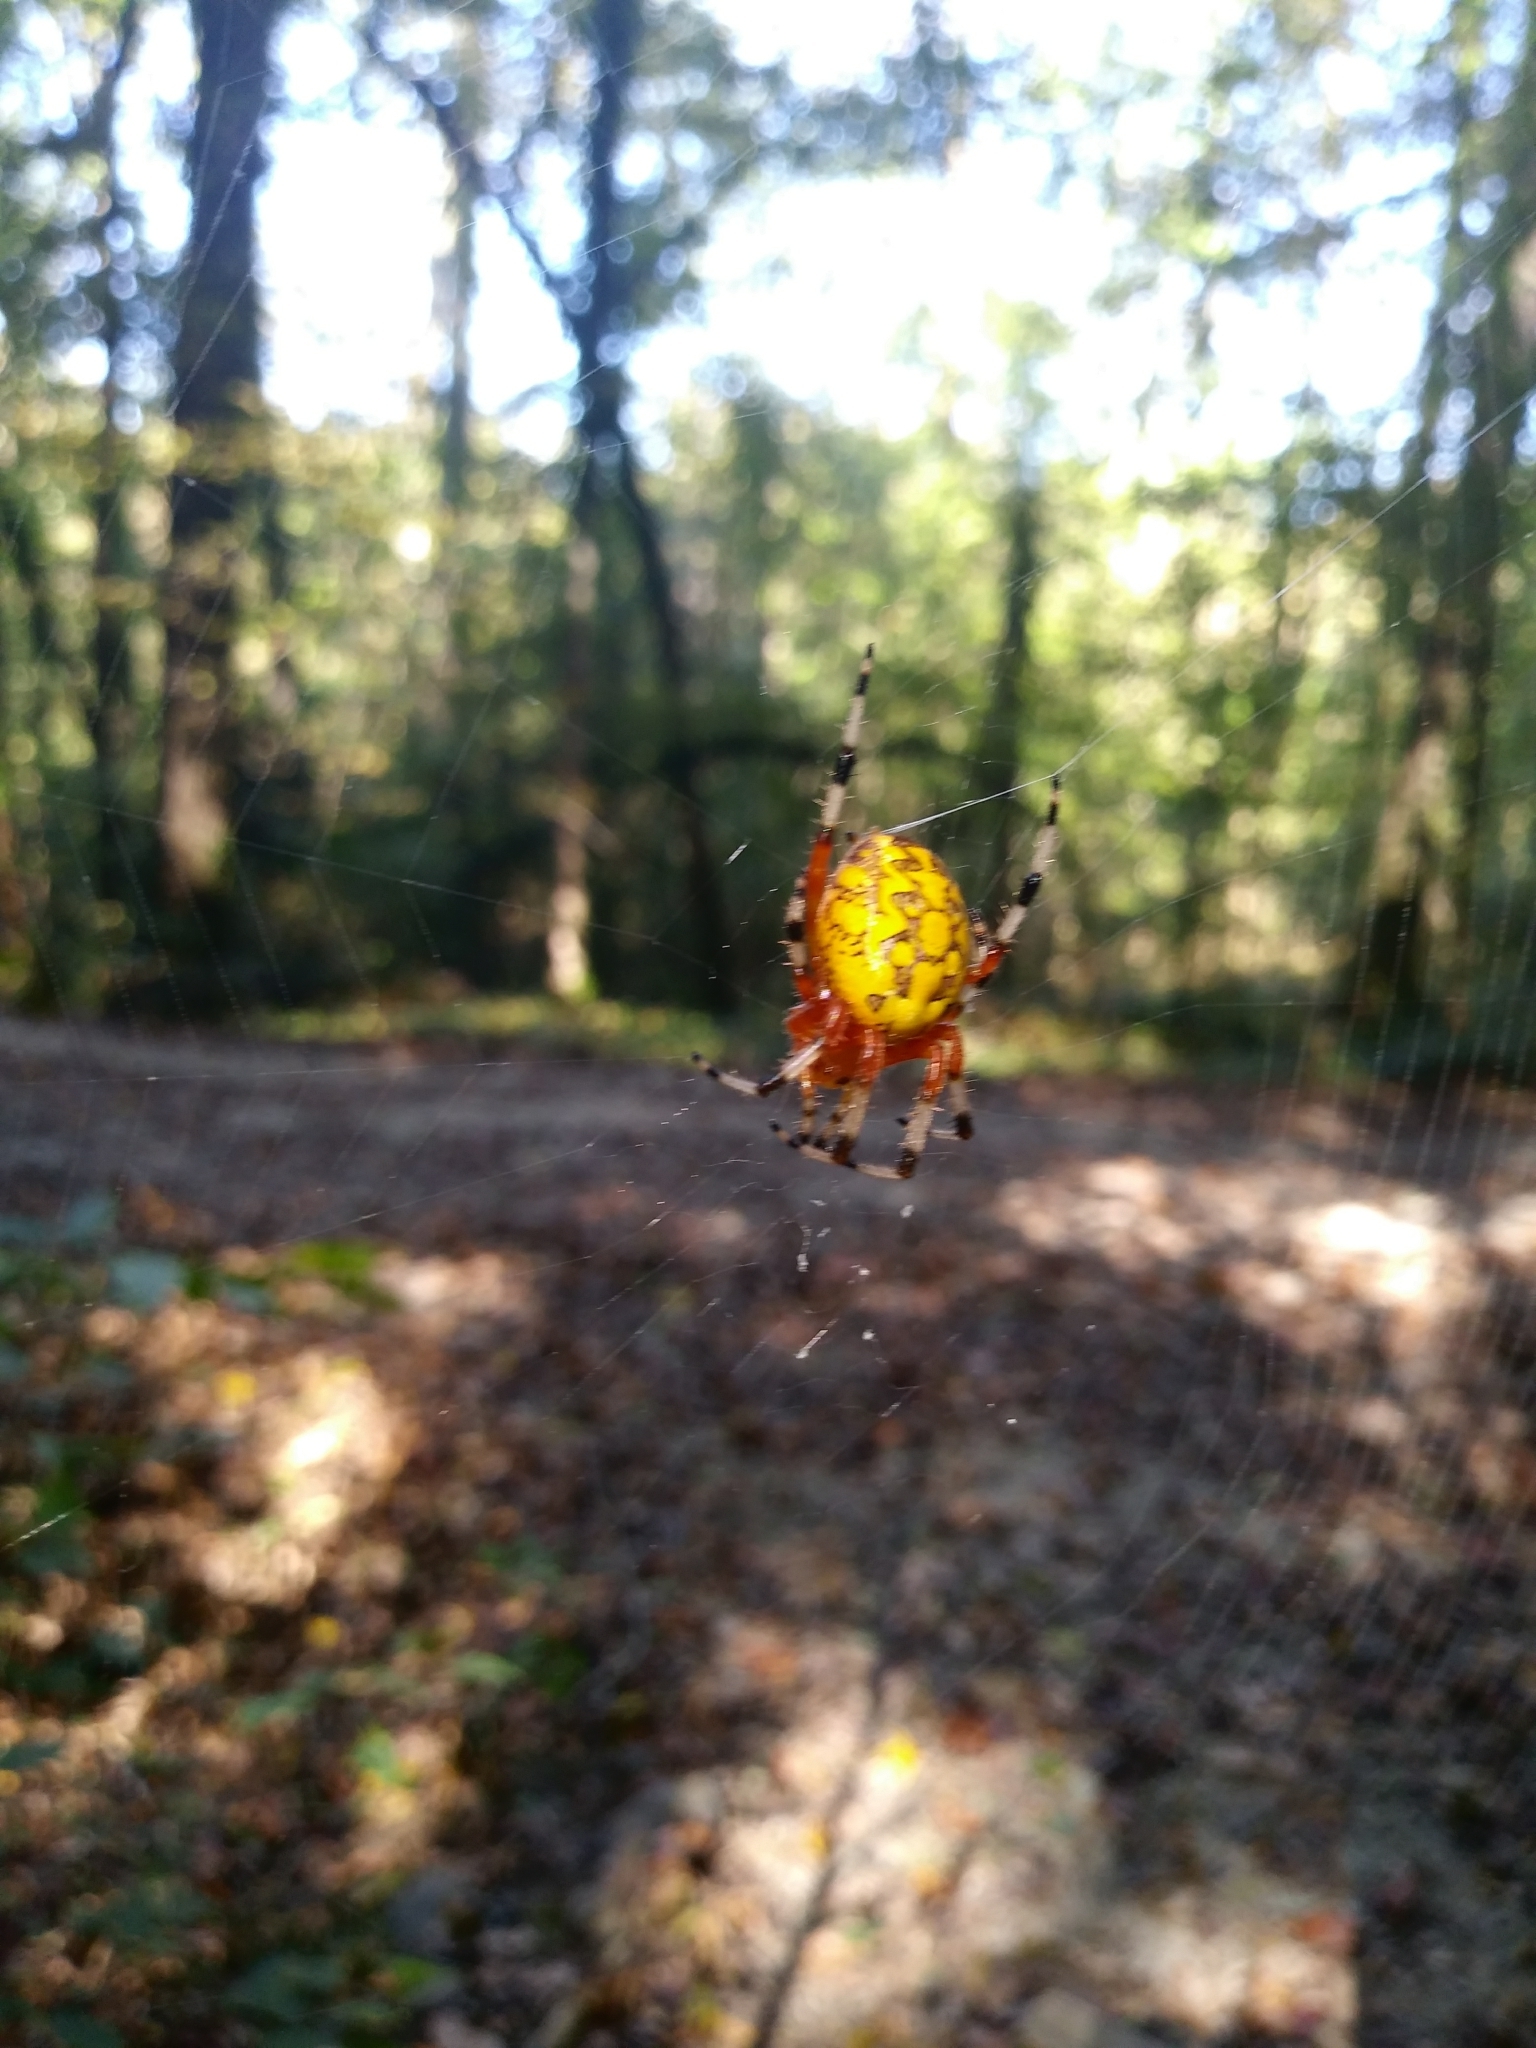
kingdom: Animalia
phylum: Arthropoda
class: Arachnida
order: Araneae
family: Araneidae
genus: Araneus
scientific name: Araneus marmoreus
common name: Marbled orbweaver
